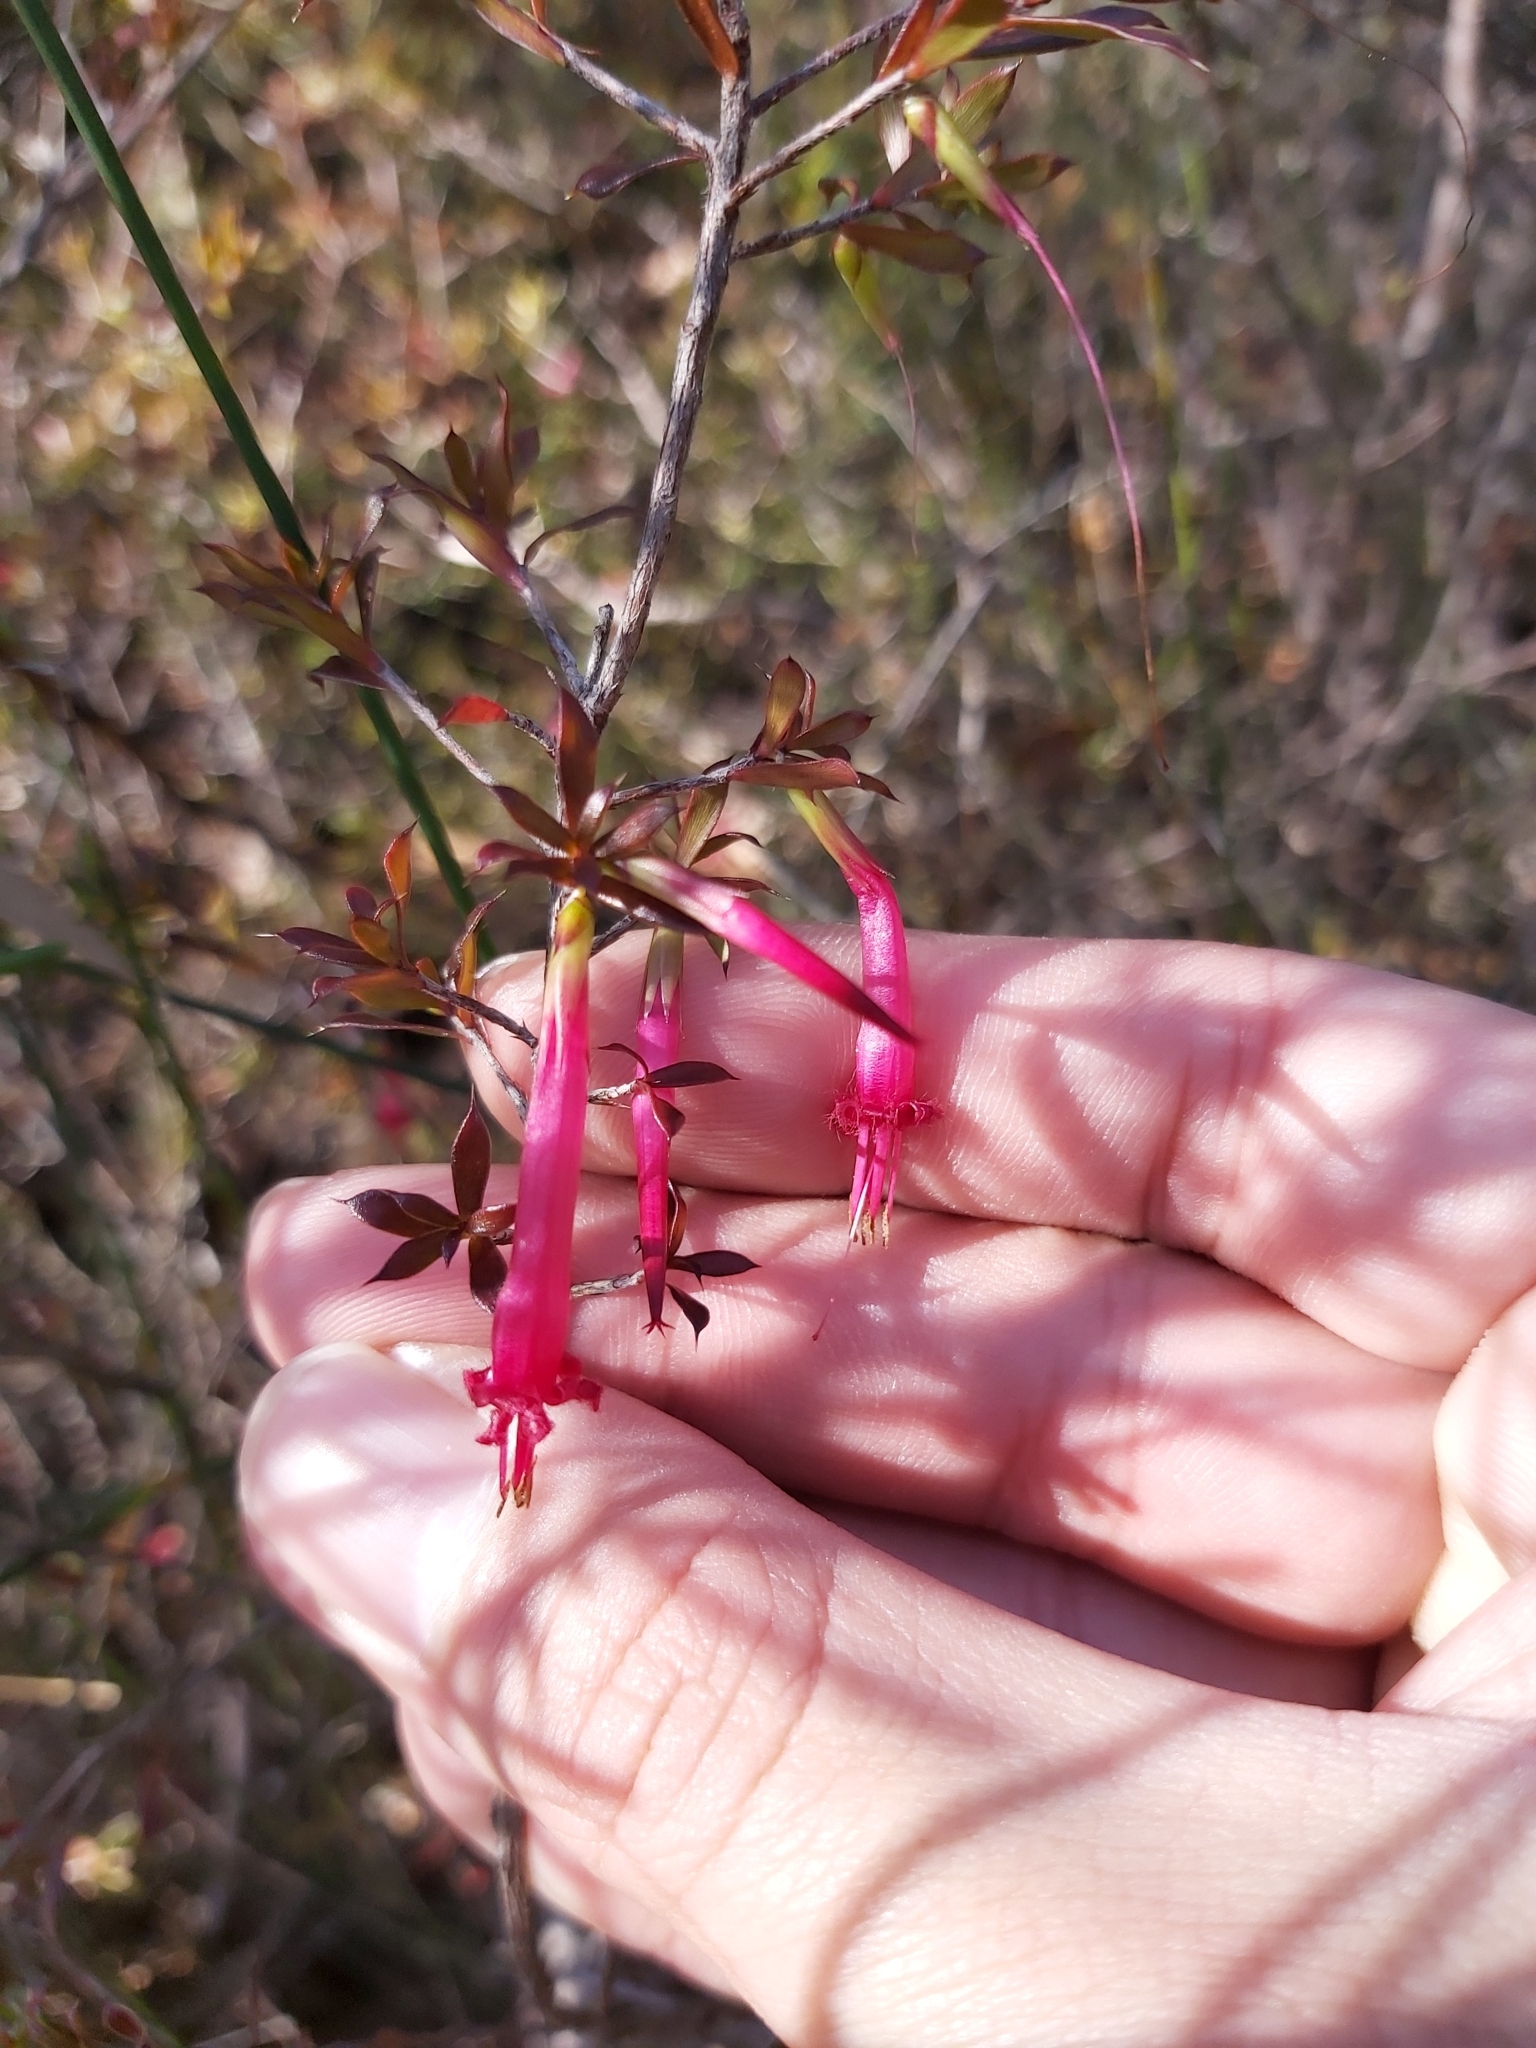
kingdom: Plantae
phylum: Tracheophyta
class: Magnoliopsida
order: Ericales
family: Ericaceae
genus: Styphelia
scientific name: Styphelia tubiflora
